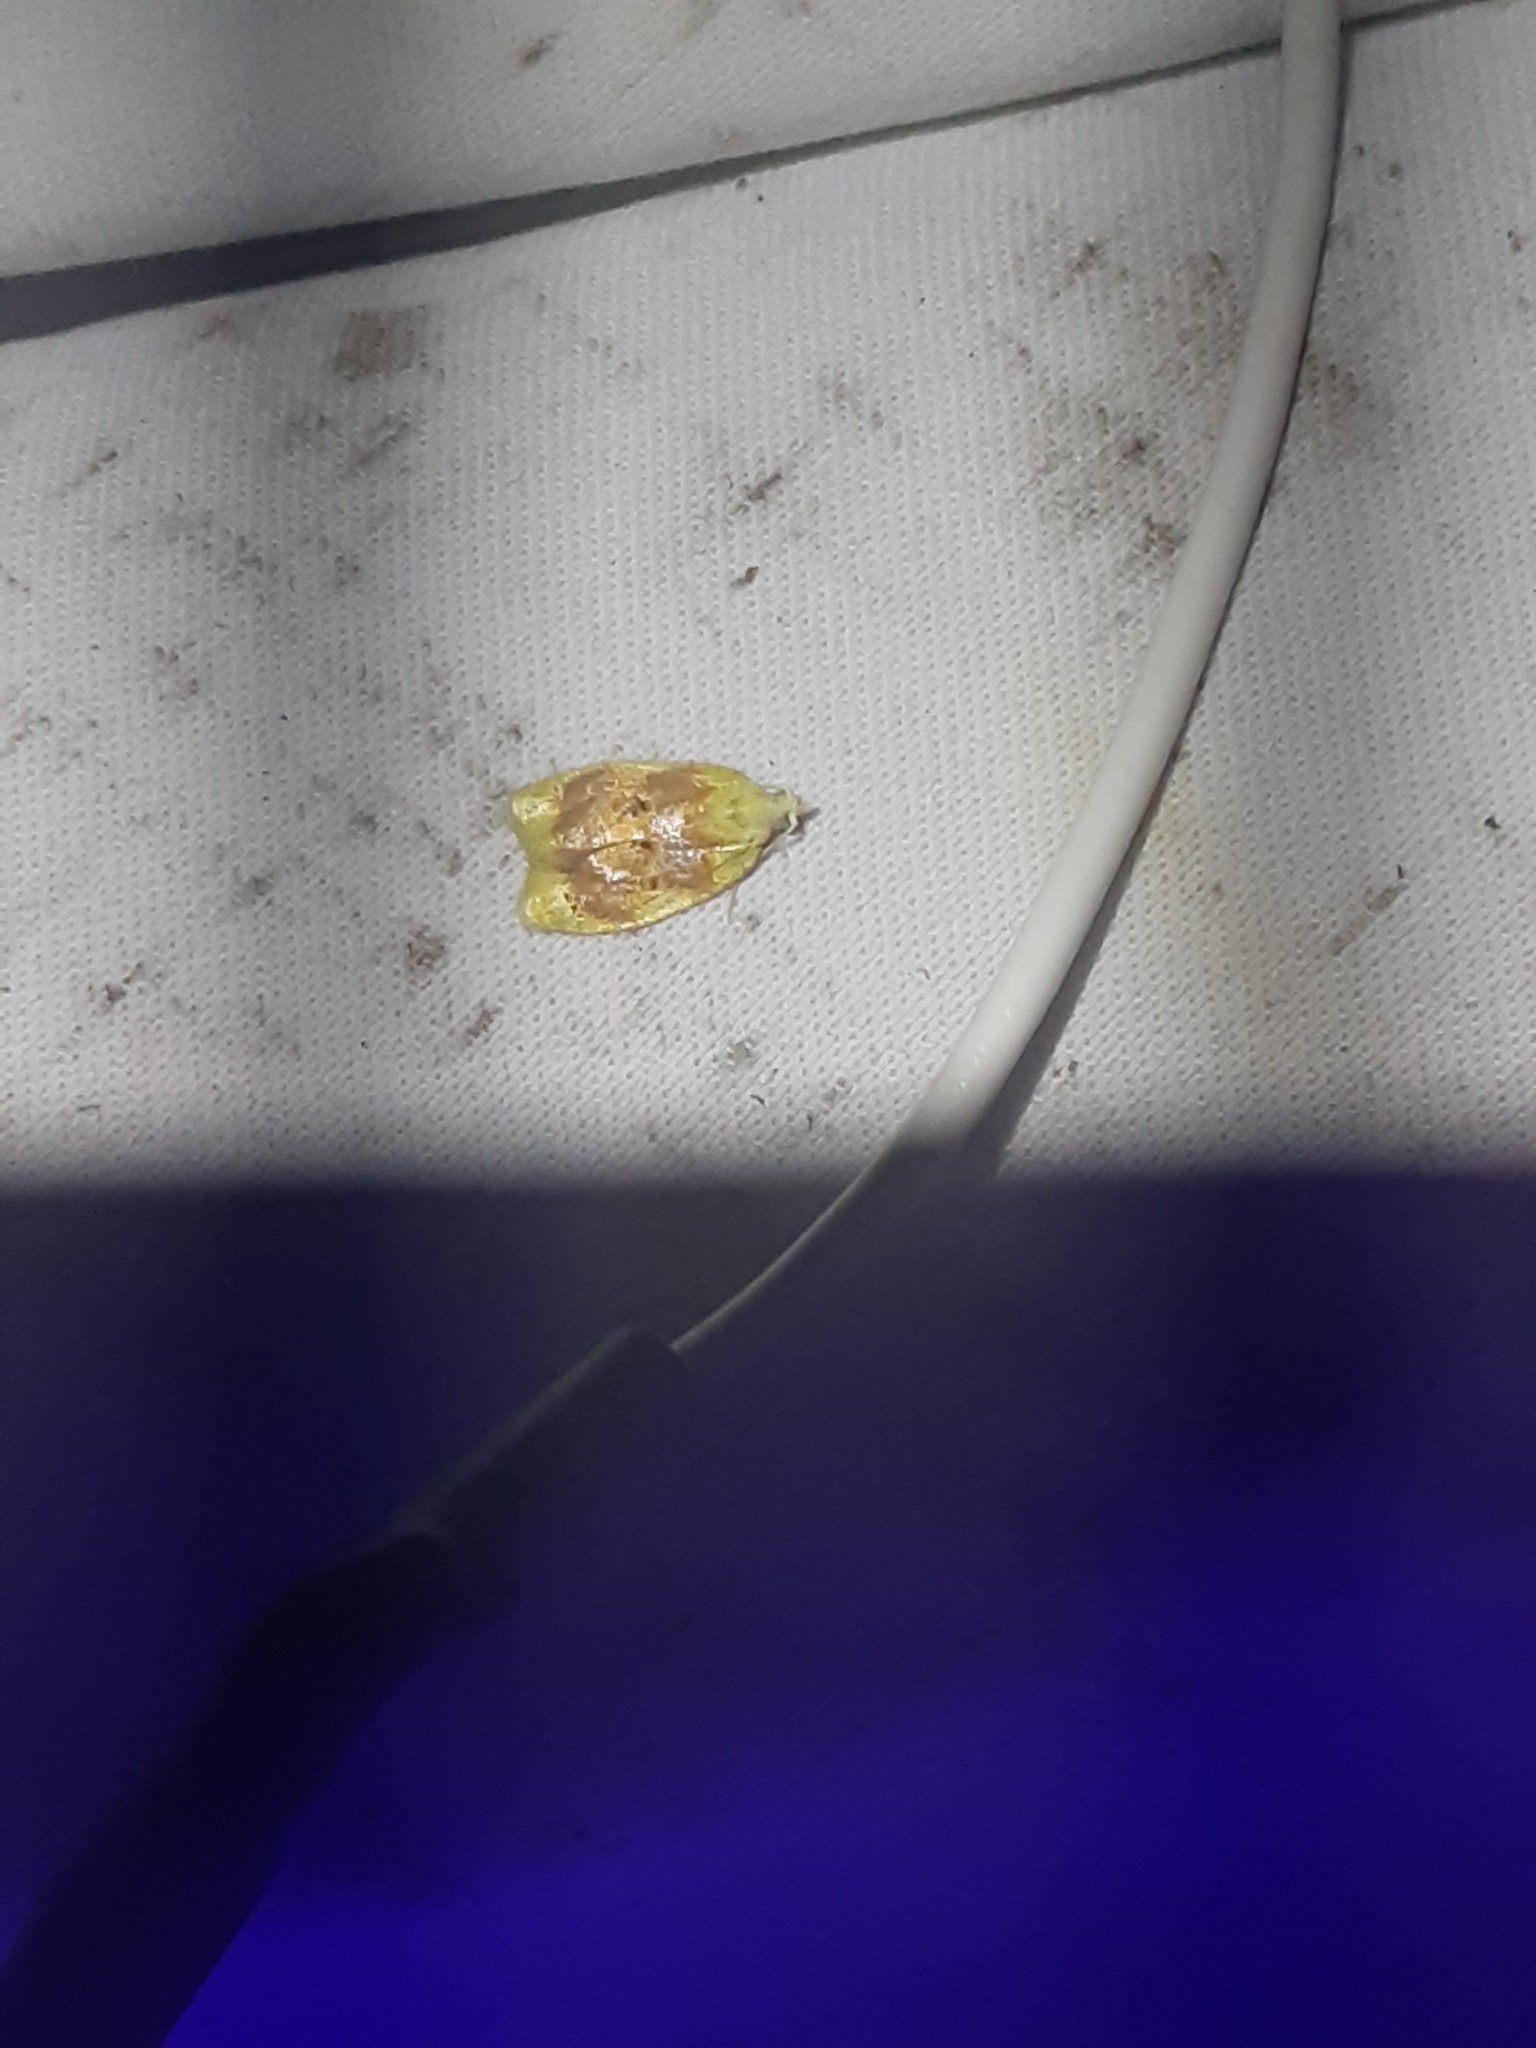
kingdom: Animalia
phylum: Arthropoda
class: Insecta
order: Lepidoptera
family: Tortricidae
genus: Acleris
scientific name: Acleris semipurpurana
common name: Oak leaftier moth
